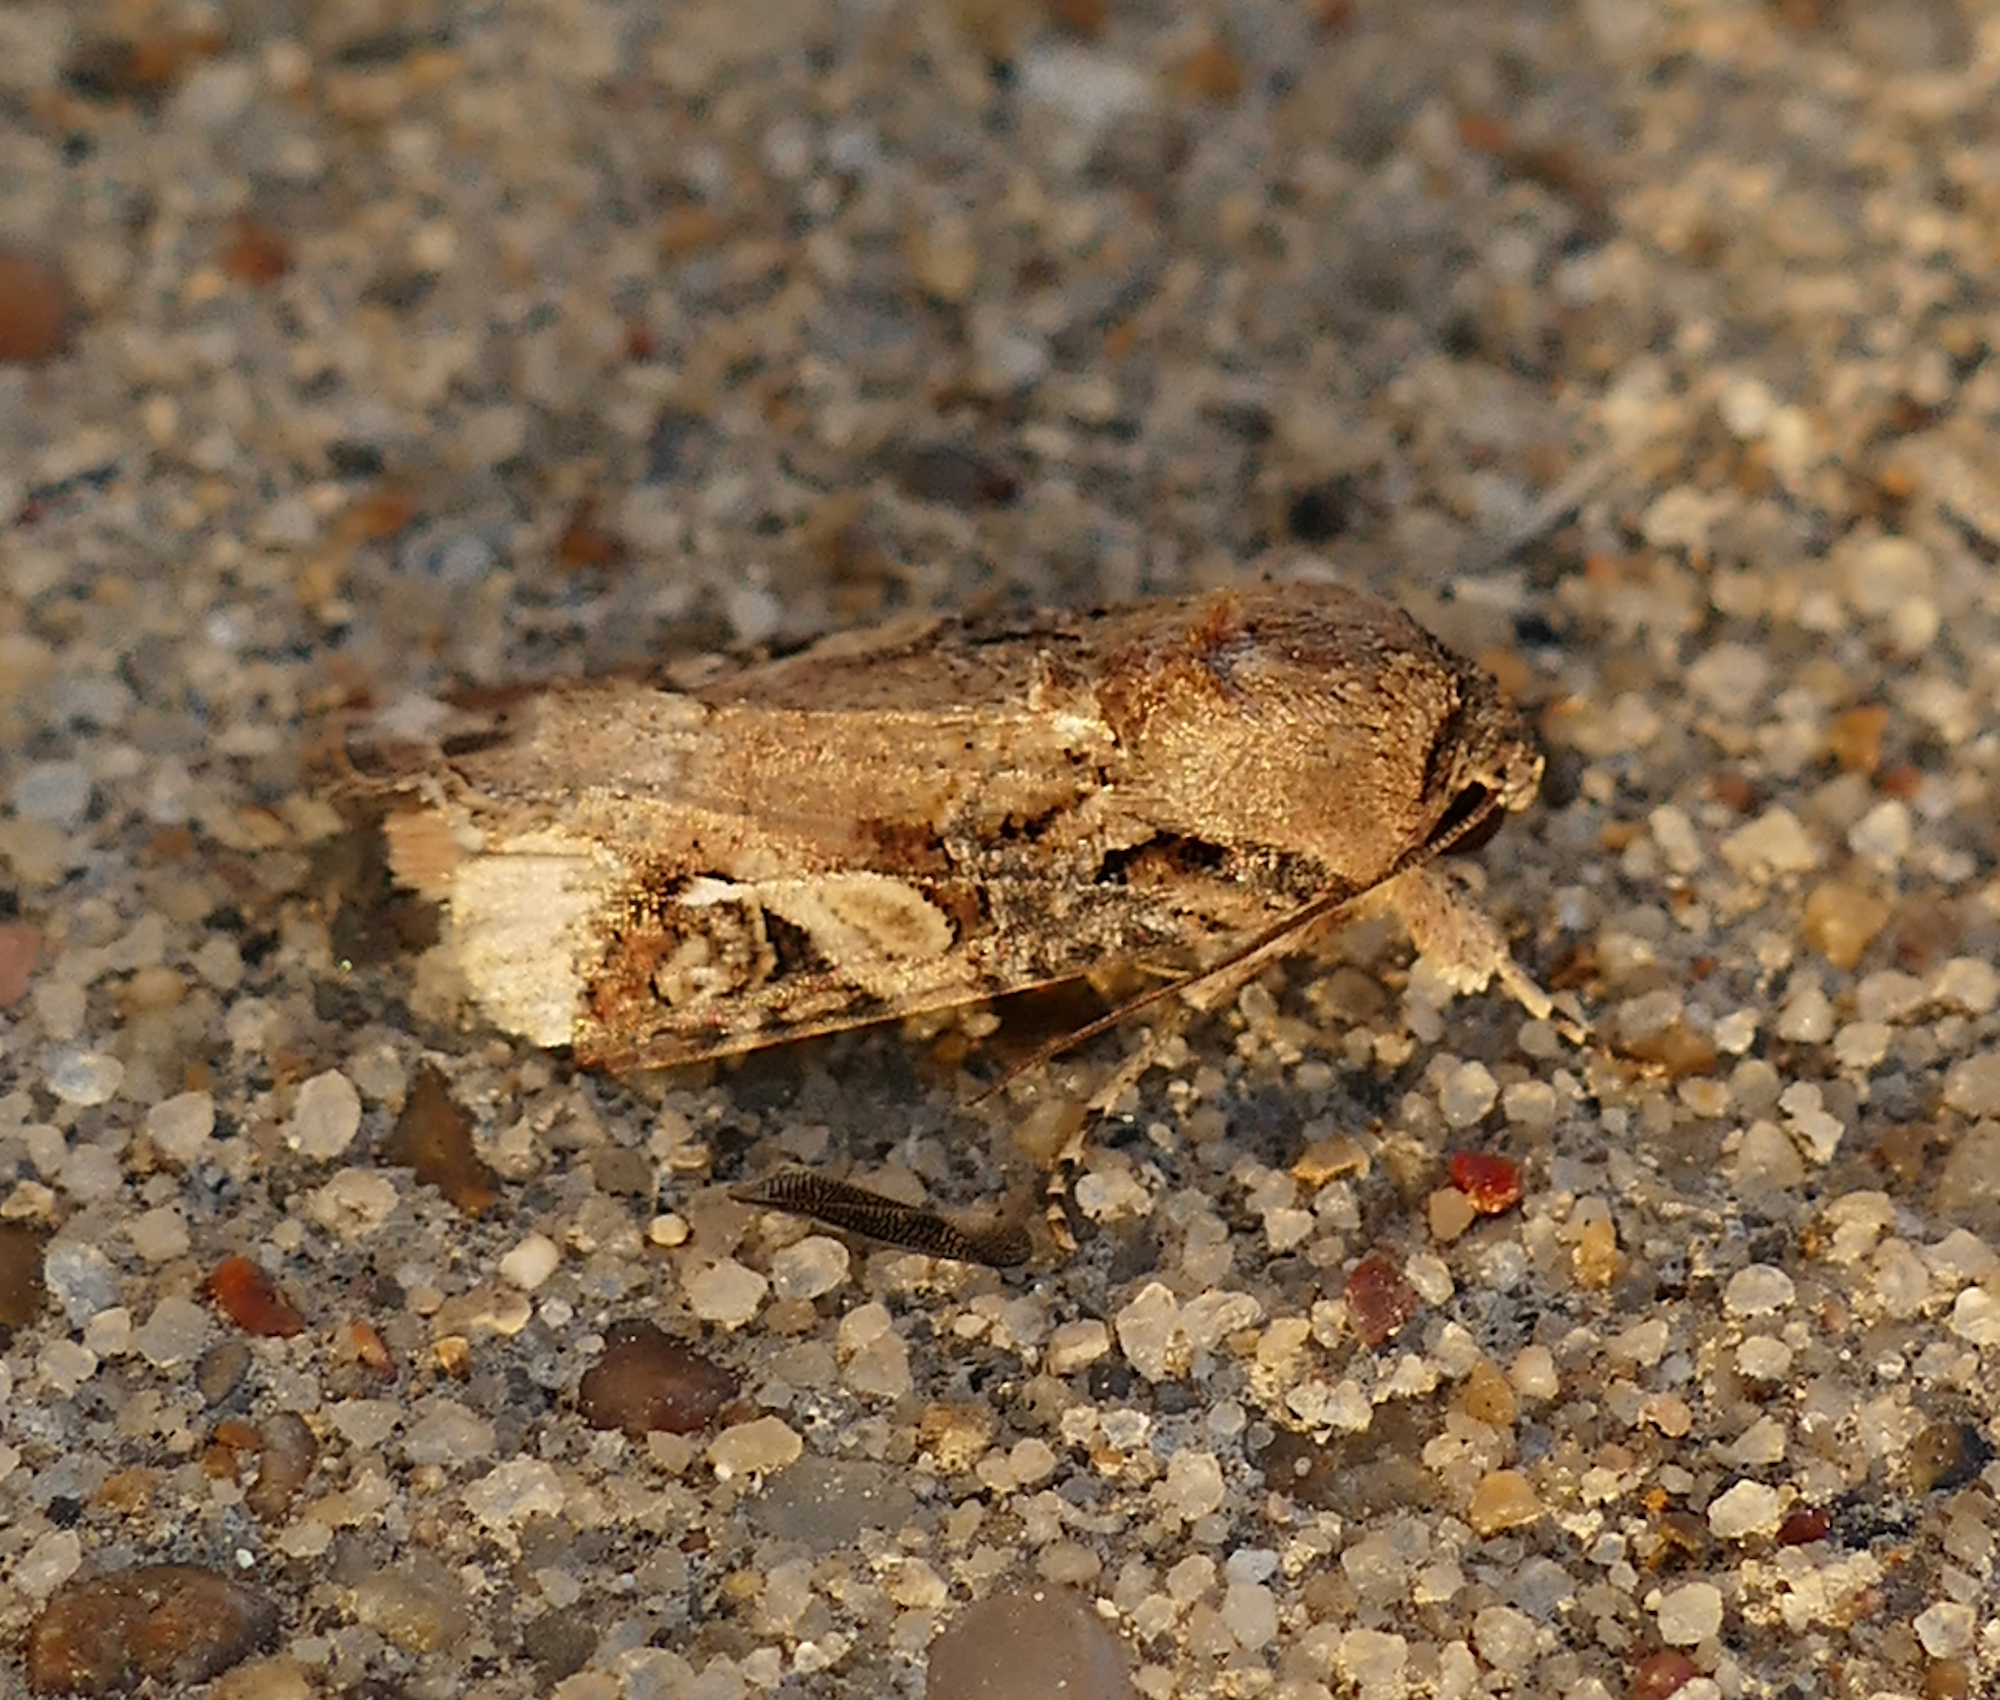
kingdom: Animalia
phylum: Arthropoda
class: Insecta
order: Lepidoptera
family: Noctuidae
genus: Spodoptera
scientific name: Spodoptera frugiperda
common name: Fall armyworm
